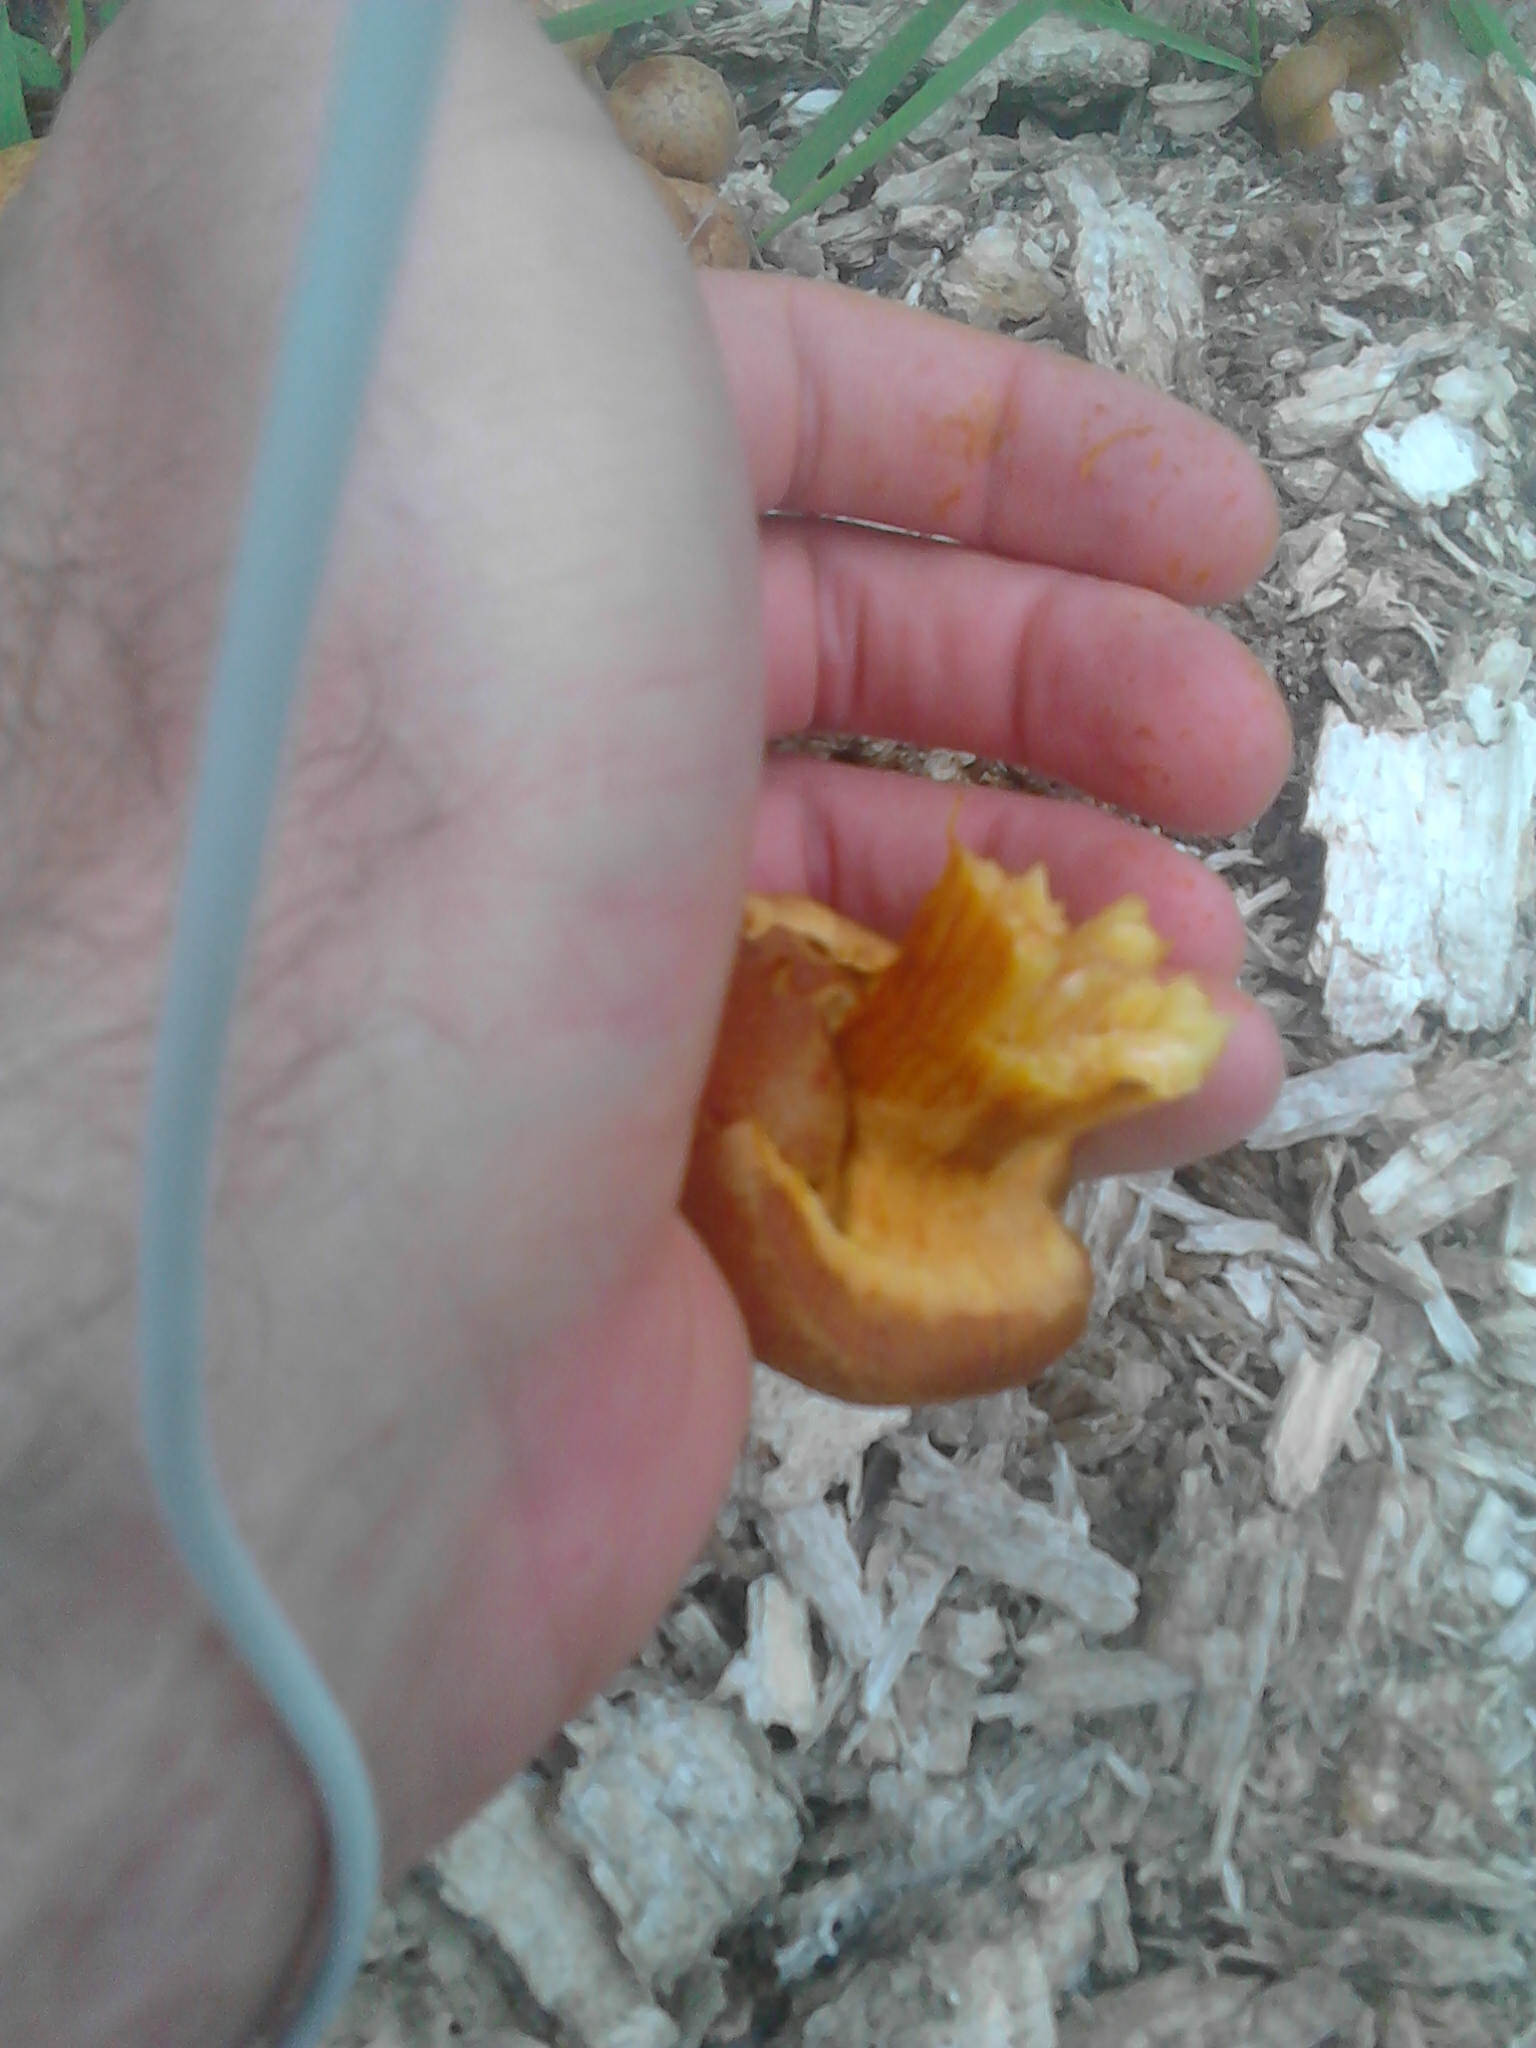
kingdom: Fungi
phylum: Basidiomycota
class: Agaricomycetes
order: Agaricales
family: Hymenogastraceae
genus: Gymnopilus
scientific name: Gymnopilus junonius
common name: Spectacular rustgill
